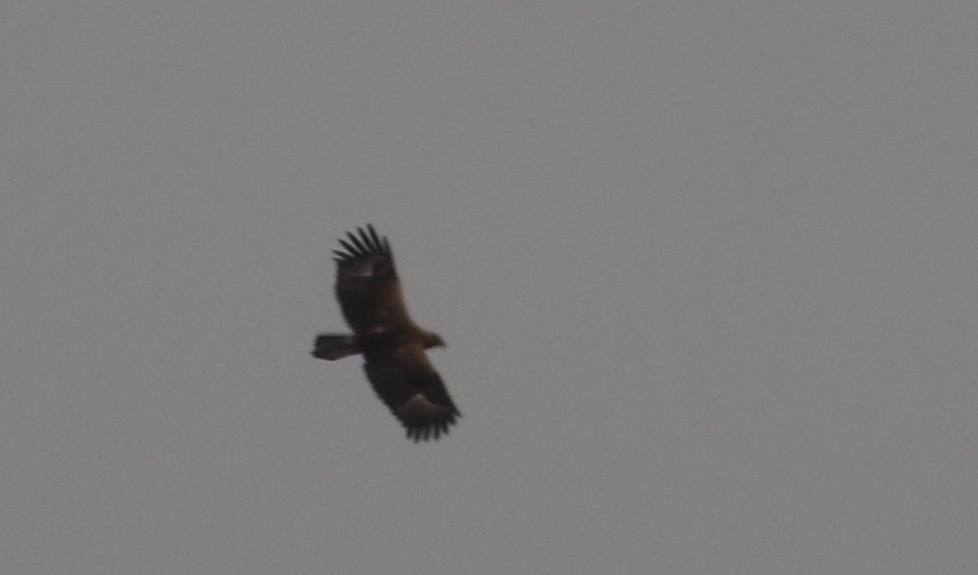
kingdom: Animalia
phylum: Chordata
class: Aves
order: Accipitriformes
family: Accipitridae
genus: Aquila
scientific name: Aquila nipalensis
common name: Steppe eagle
